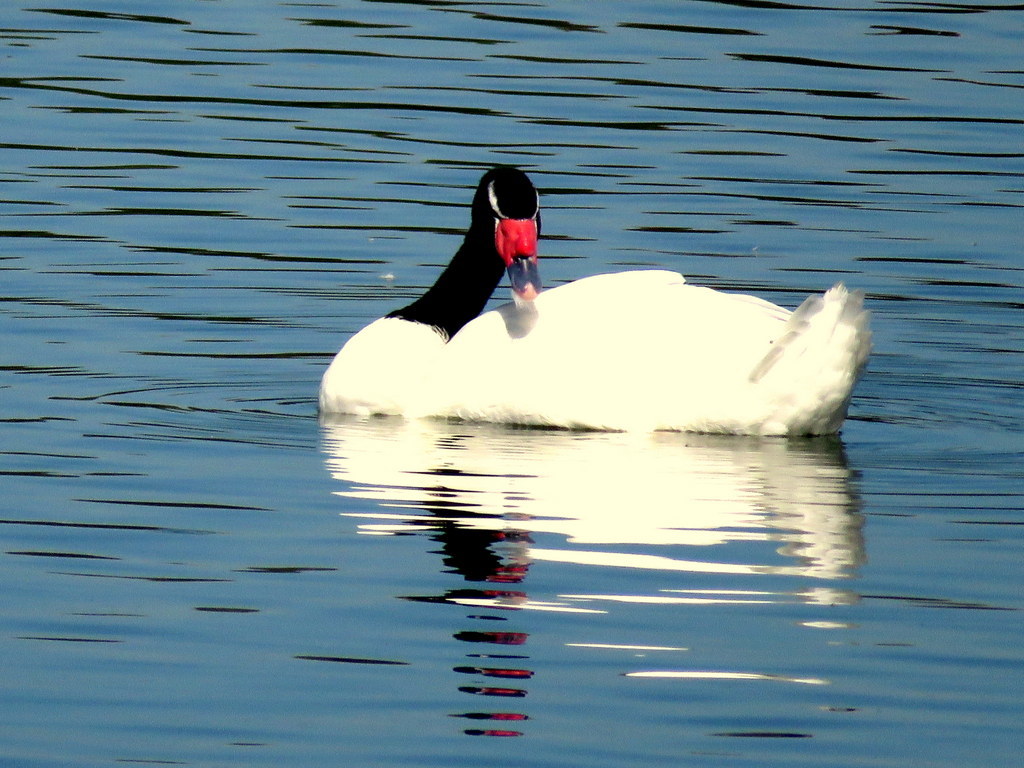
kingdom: Animalia
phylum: Chordata
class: Aves
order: Anseriformes
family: Anatidae
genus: Cygnus
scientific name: Cygnus melancoryphus
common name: Black-necked swan
